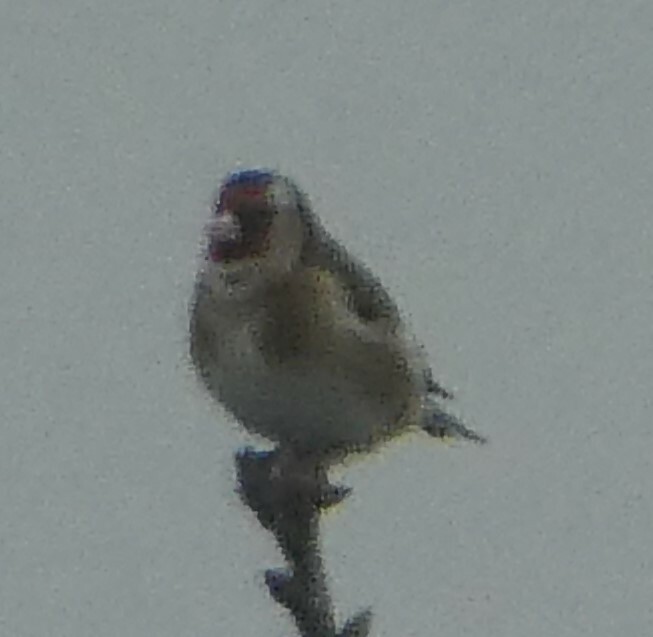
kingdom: Animalia
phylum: Chordata
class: Aves
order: Passeriformes
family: Fringillidae
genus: Carduelis
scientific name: Carduelis carduelis
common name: European goldfinch
